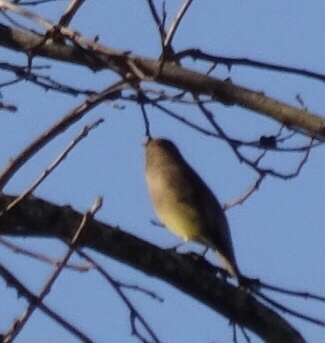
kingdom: Animalia
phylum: Chordata
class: Aves
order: Passeriformes
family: Bombycillidae
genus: Bombycilla
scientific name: Bombycilla cedrorum
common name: Cedar waxwing
